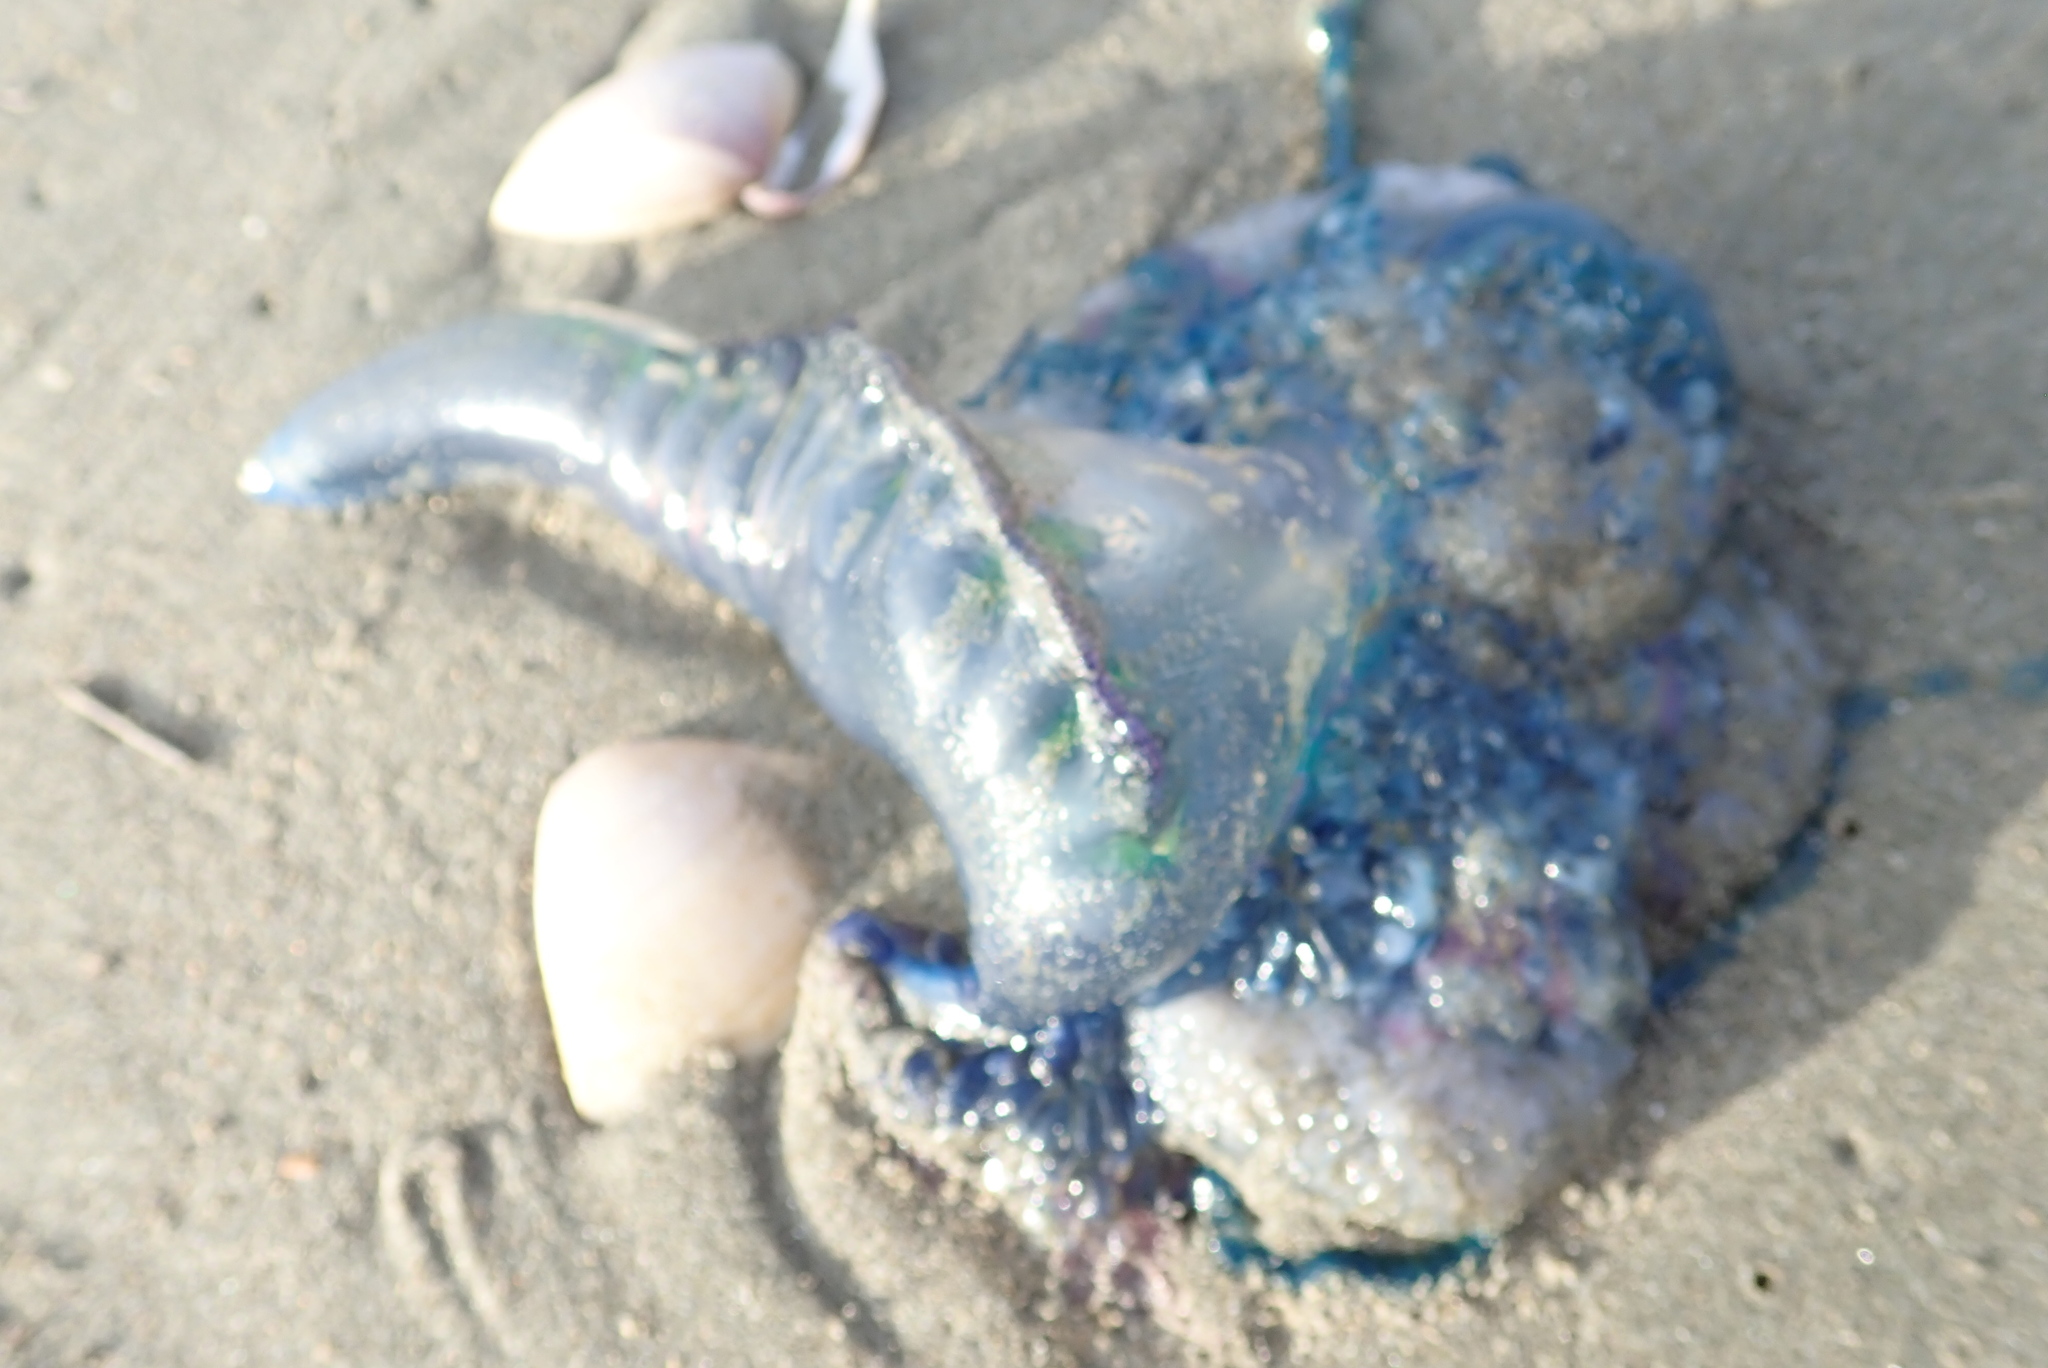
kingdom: Animalia
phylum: Cnidaria
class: Hydrozoa
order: Siphonophorae
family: Physaliidae
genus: Physalia
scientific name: Physalia physalis
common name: Portuguese man-of-war
